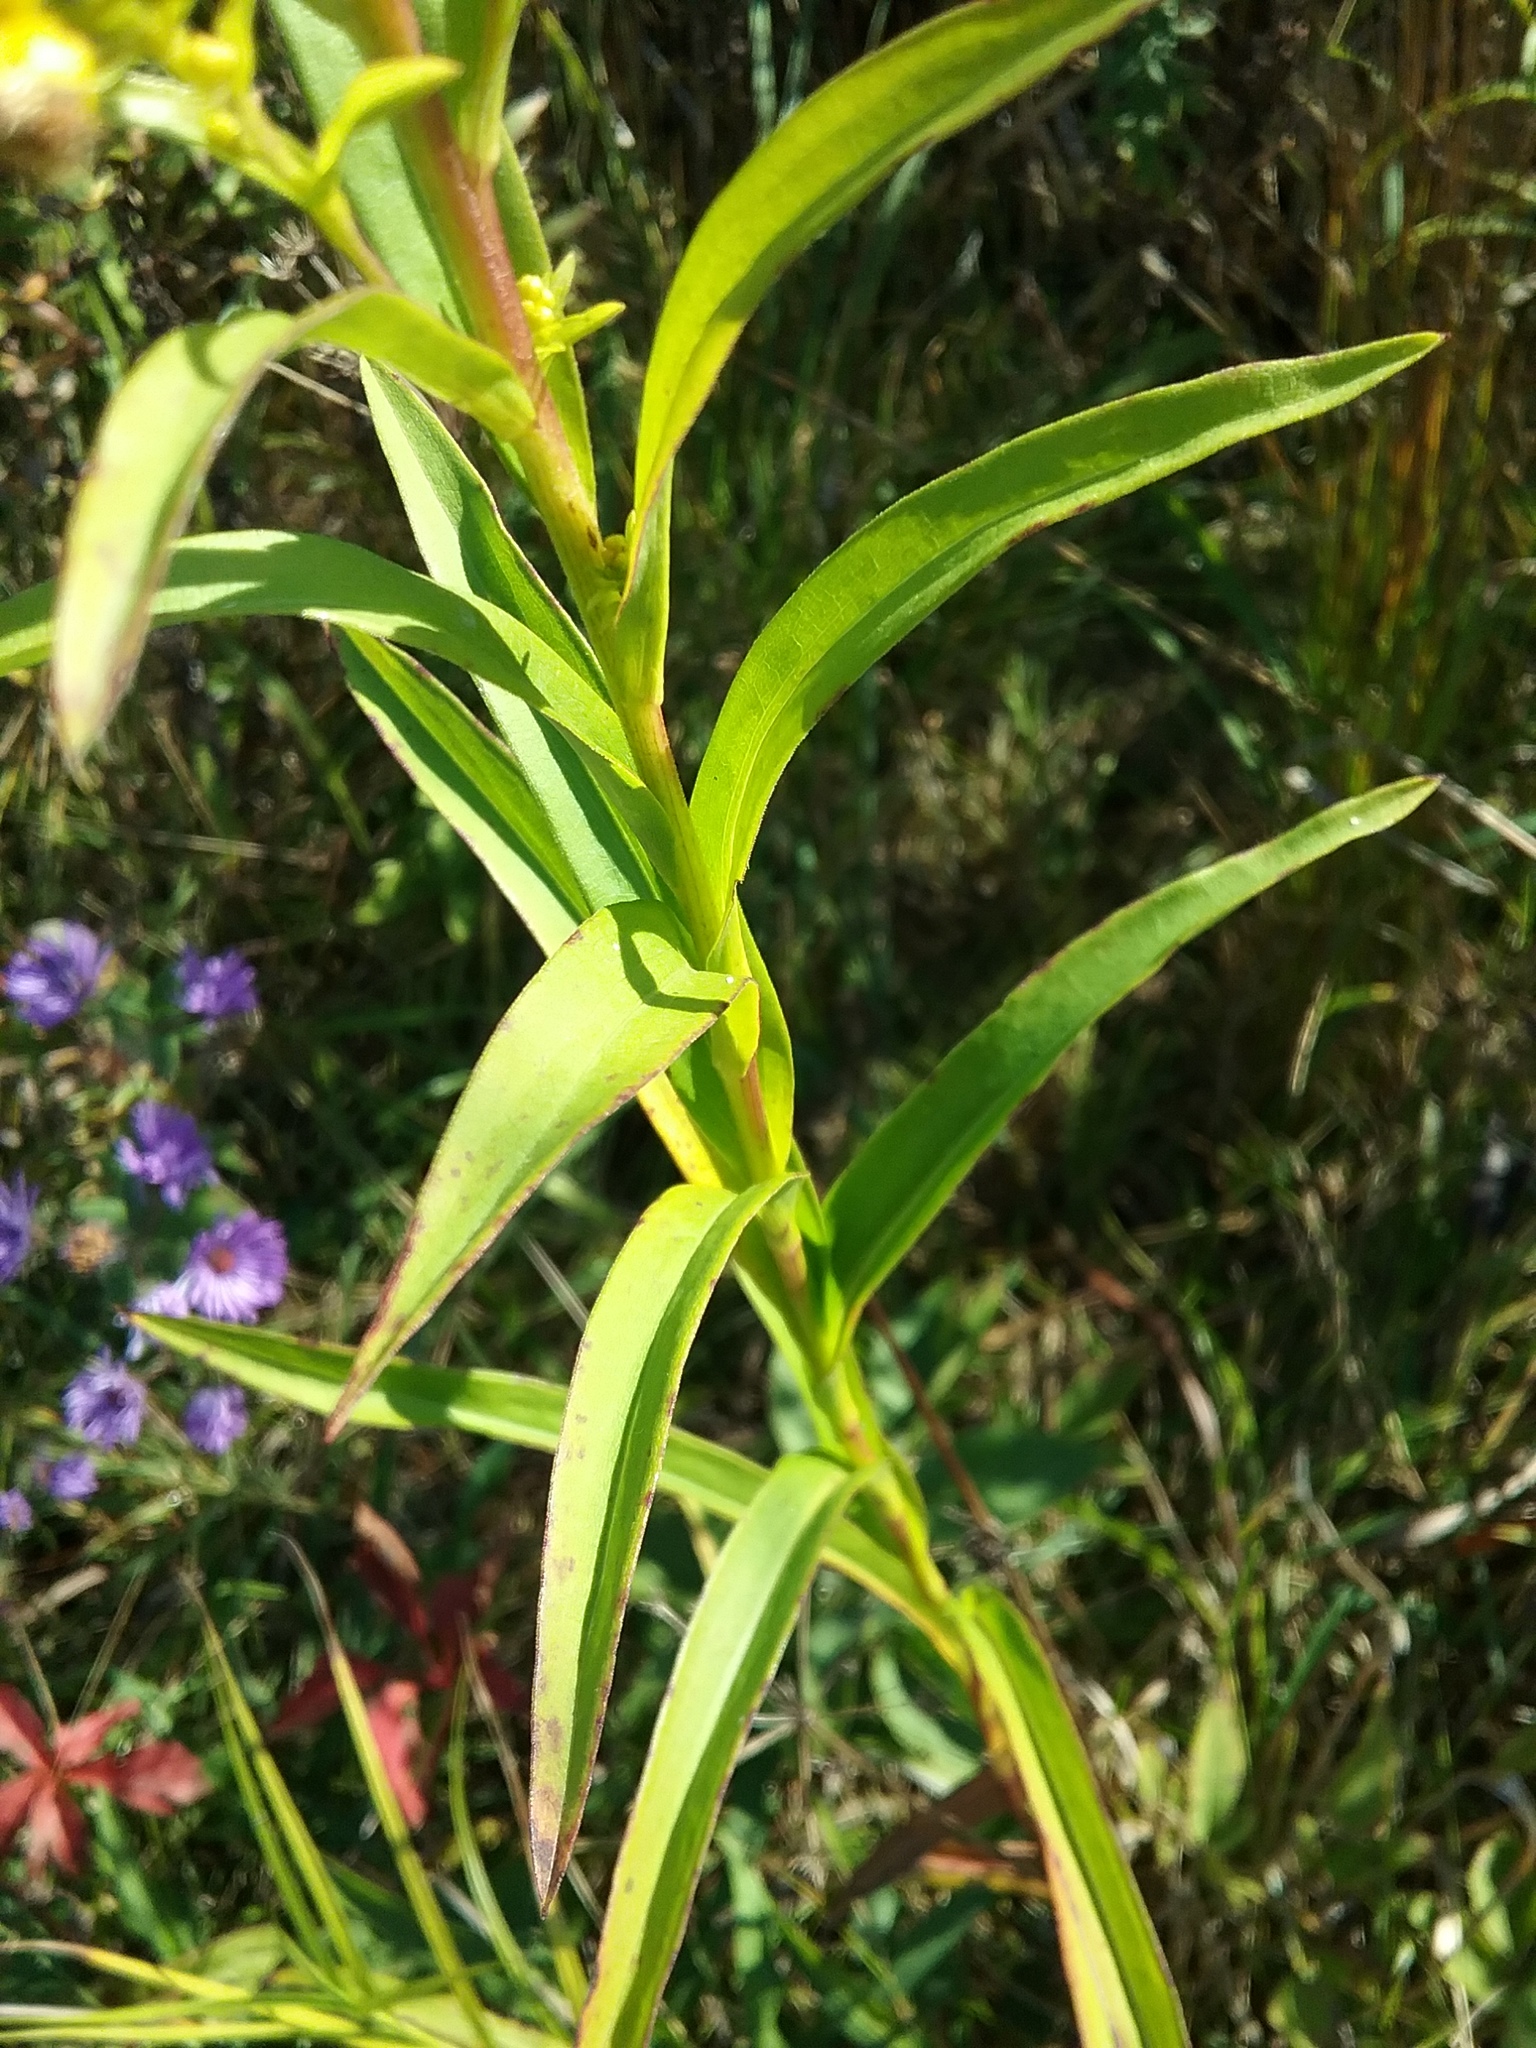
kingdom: Plantae
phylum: Tracheophyta
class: Magnoliopsida
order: Asterales
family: Asteraceae
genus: Solidago
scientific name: Solidago riddellii
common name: Riddell's goldenrod
